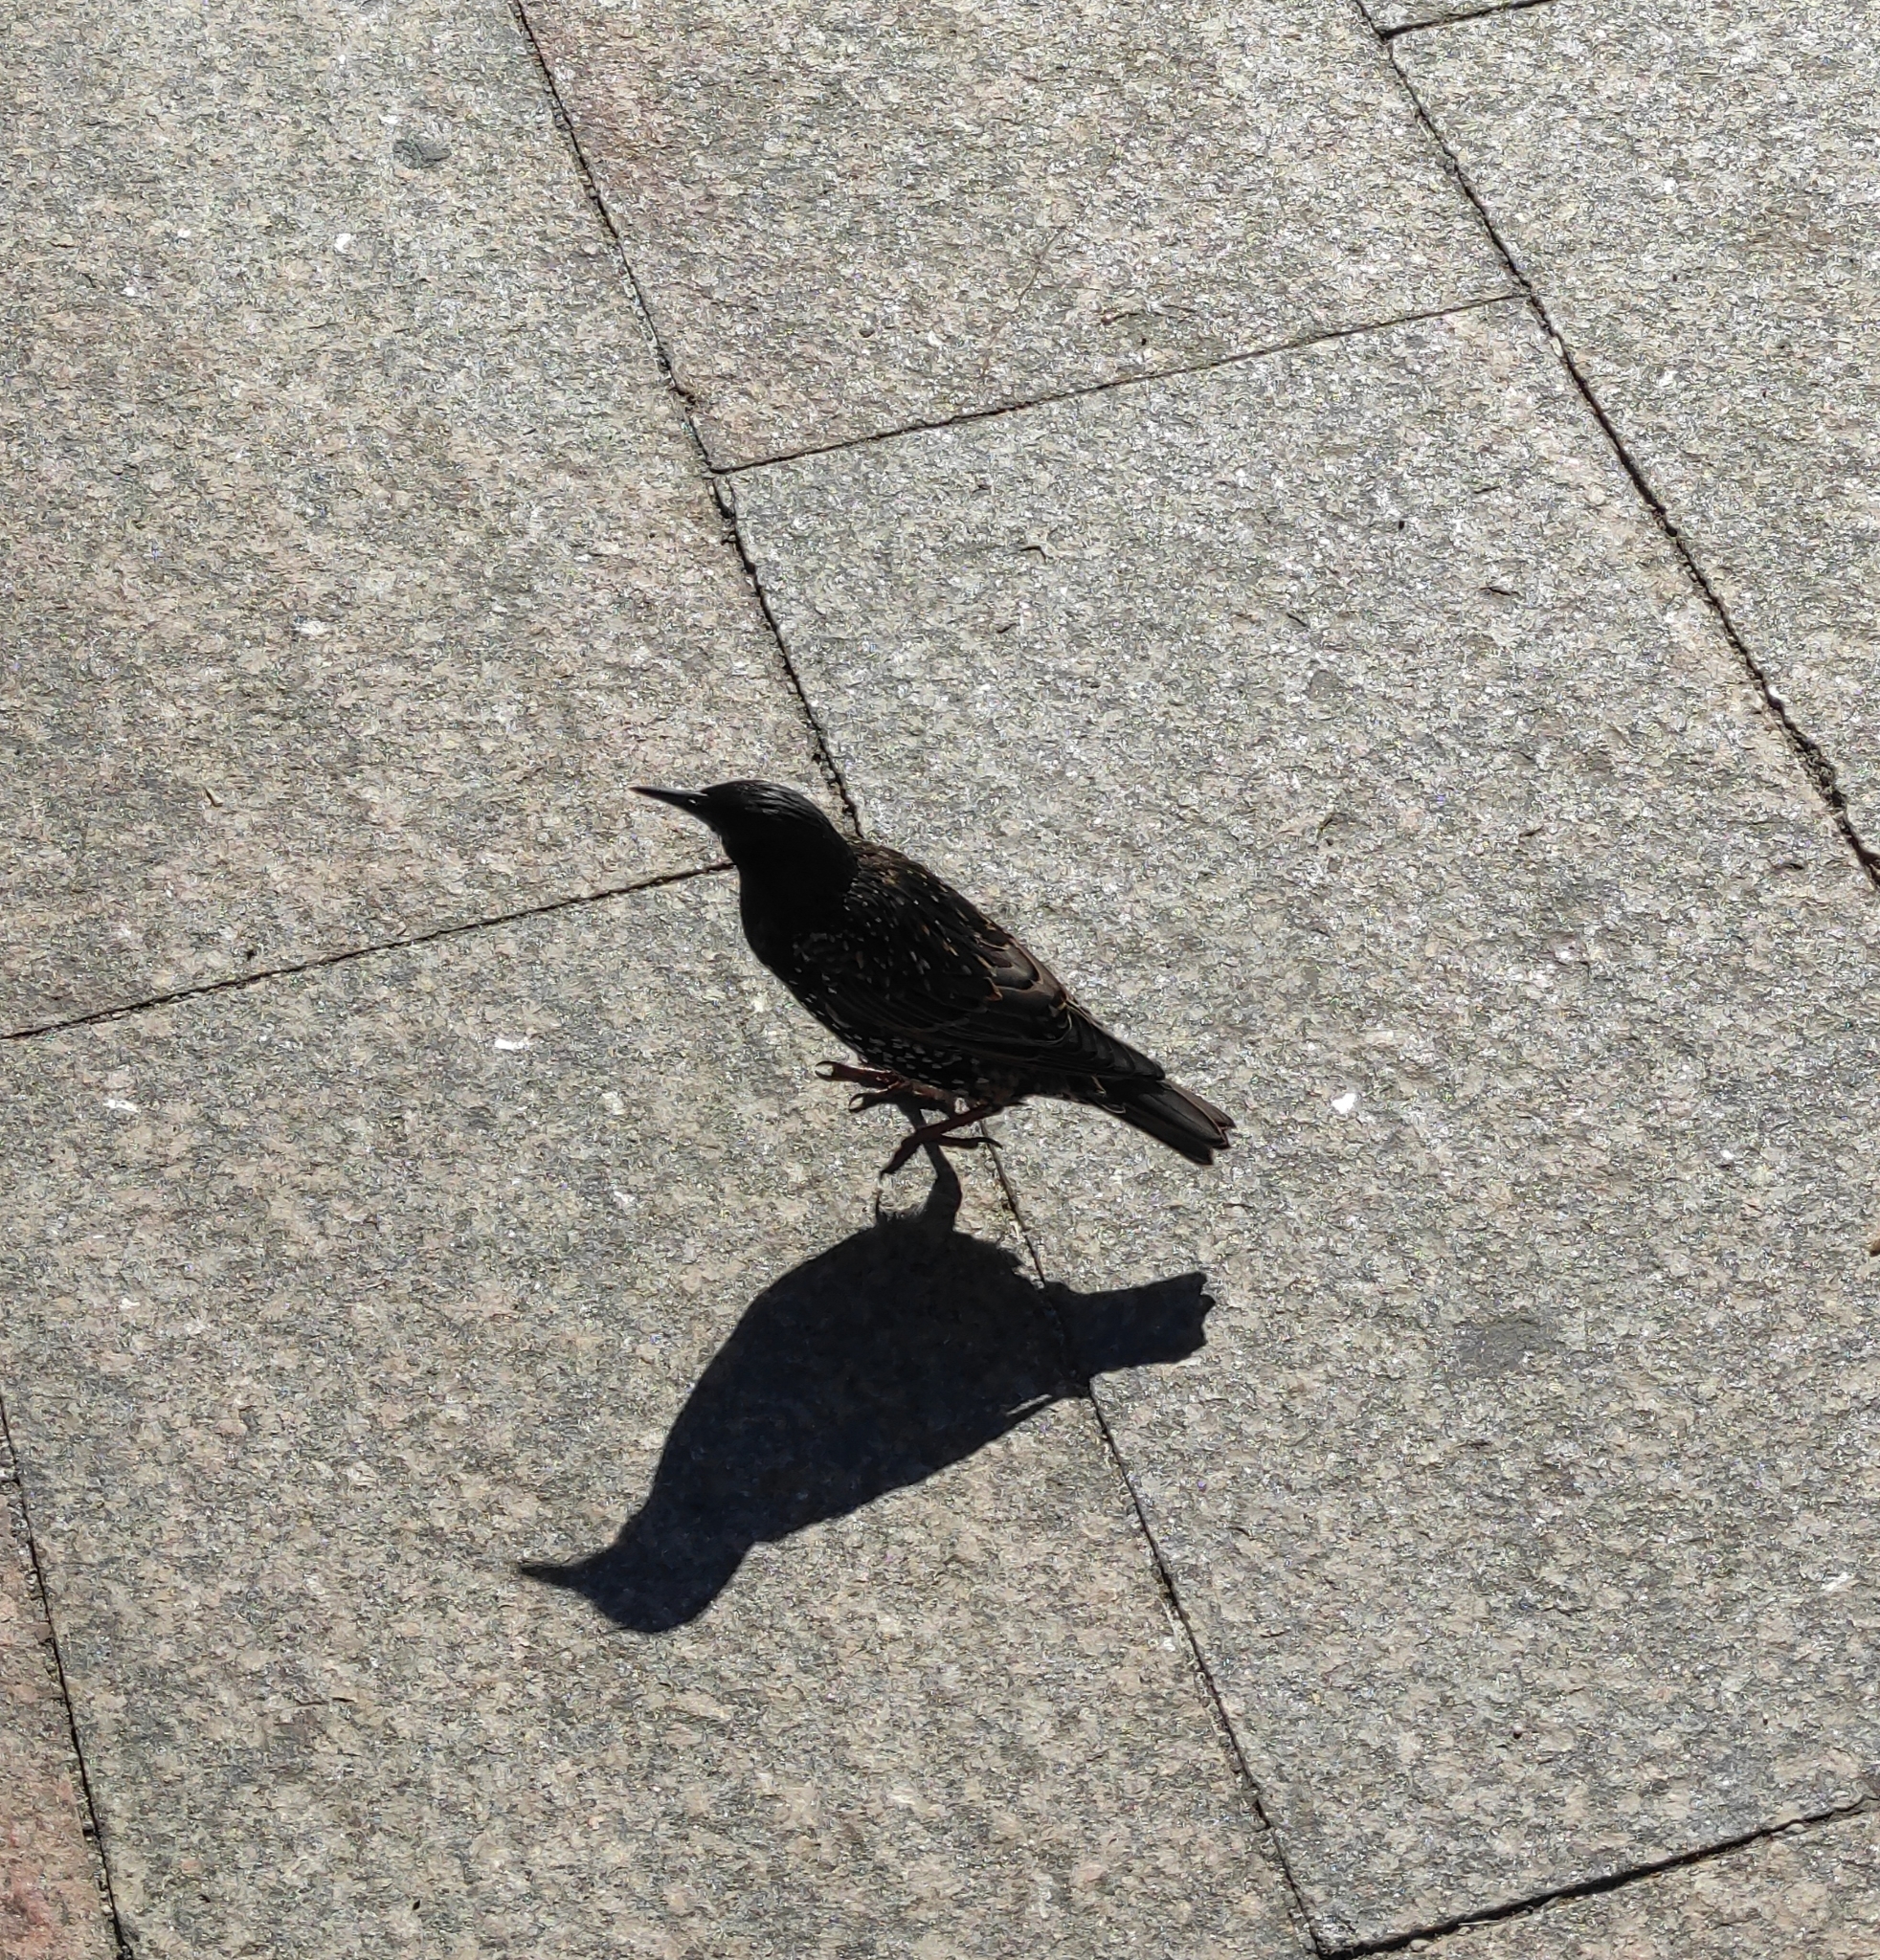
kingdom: Animalia
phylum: Chordata
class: Aves
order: Passeriformes
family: Sturnidae
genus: Sturnus
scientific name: Sturnus vulgaris
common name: Common starling
